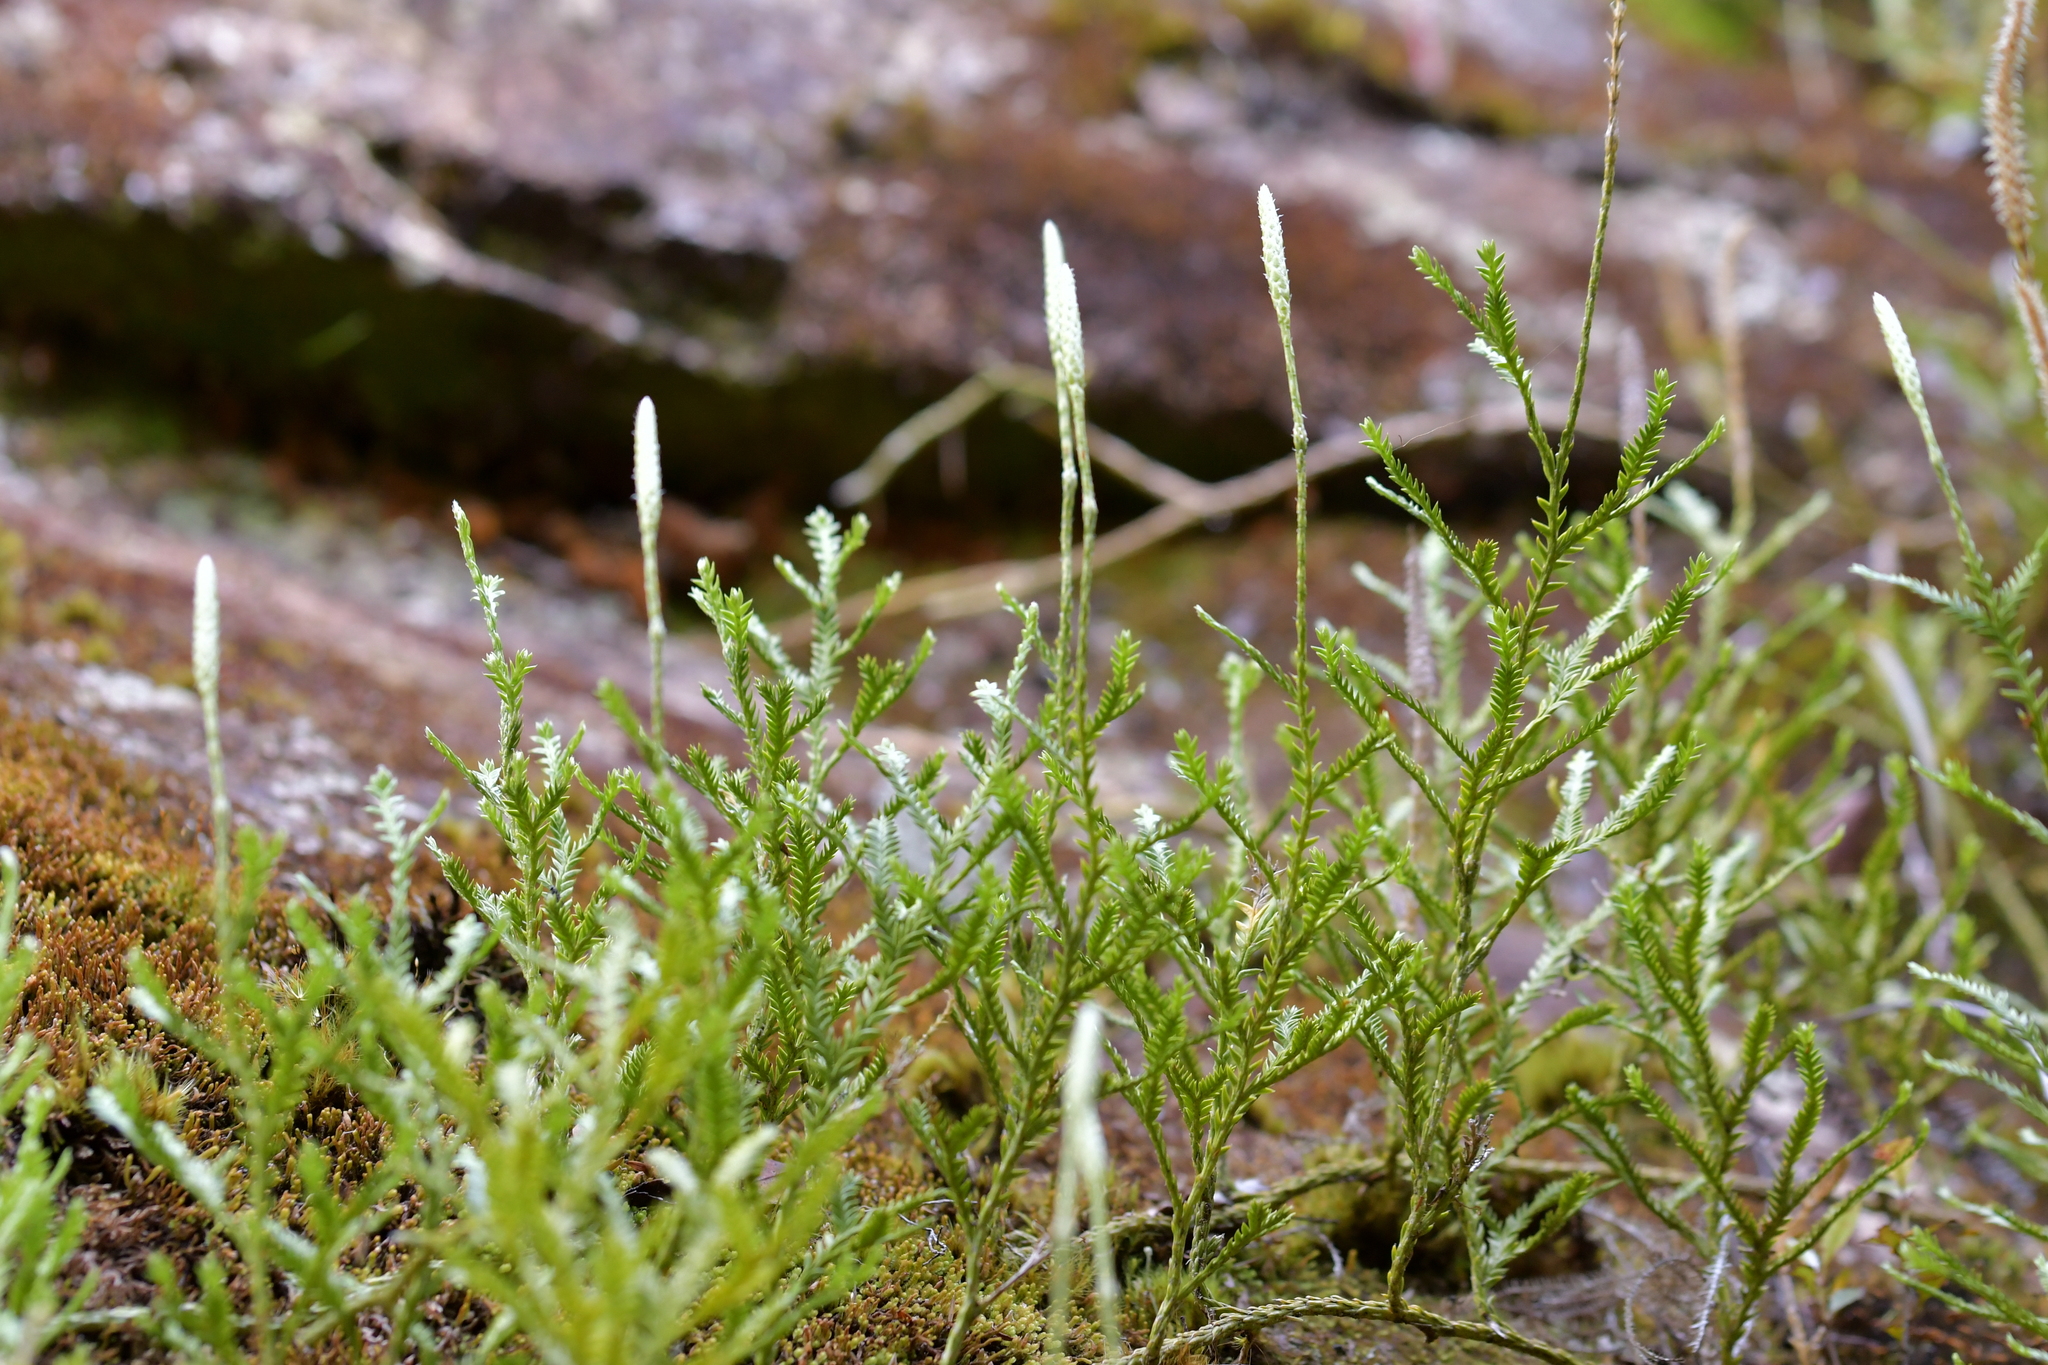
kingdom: Plantae
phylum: Tracheophyta
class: Lycopodiopsida
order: Lycopodiales
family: Lycopodiaceae
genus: Diphasium
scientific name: Diphasium scariosum
